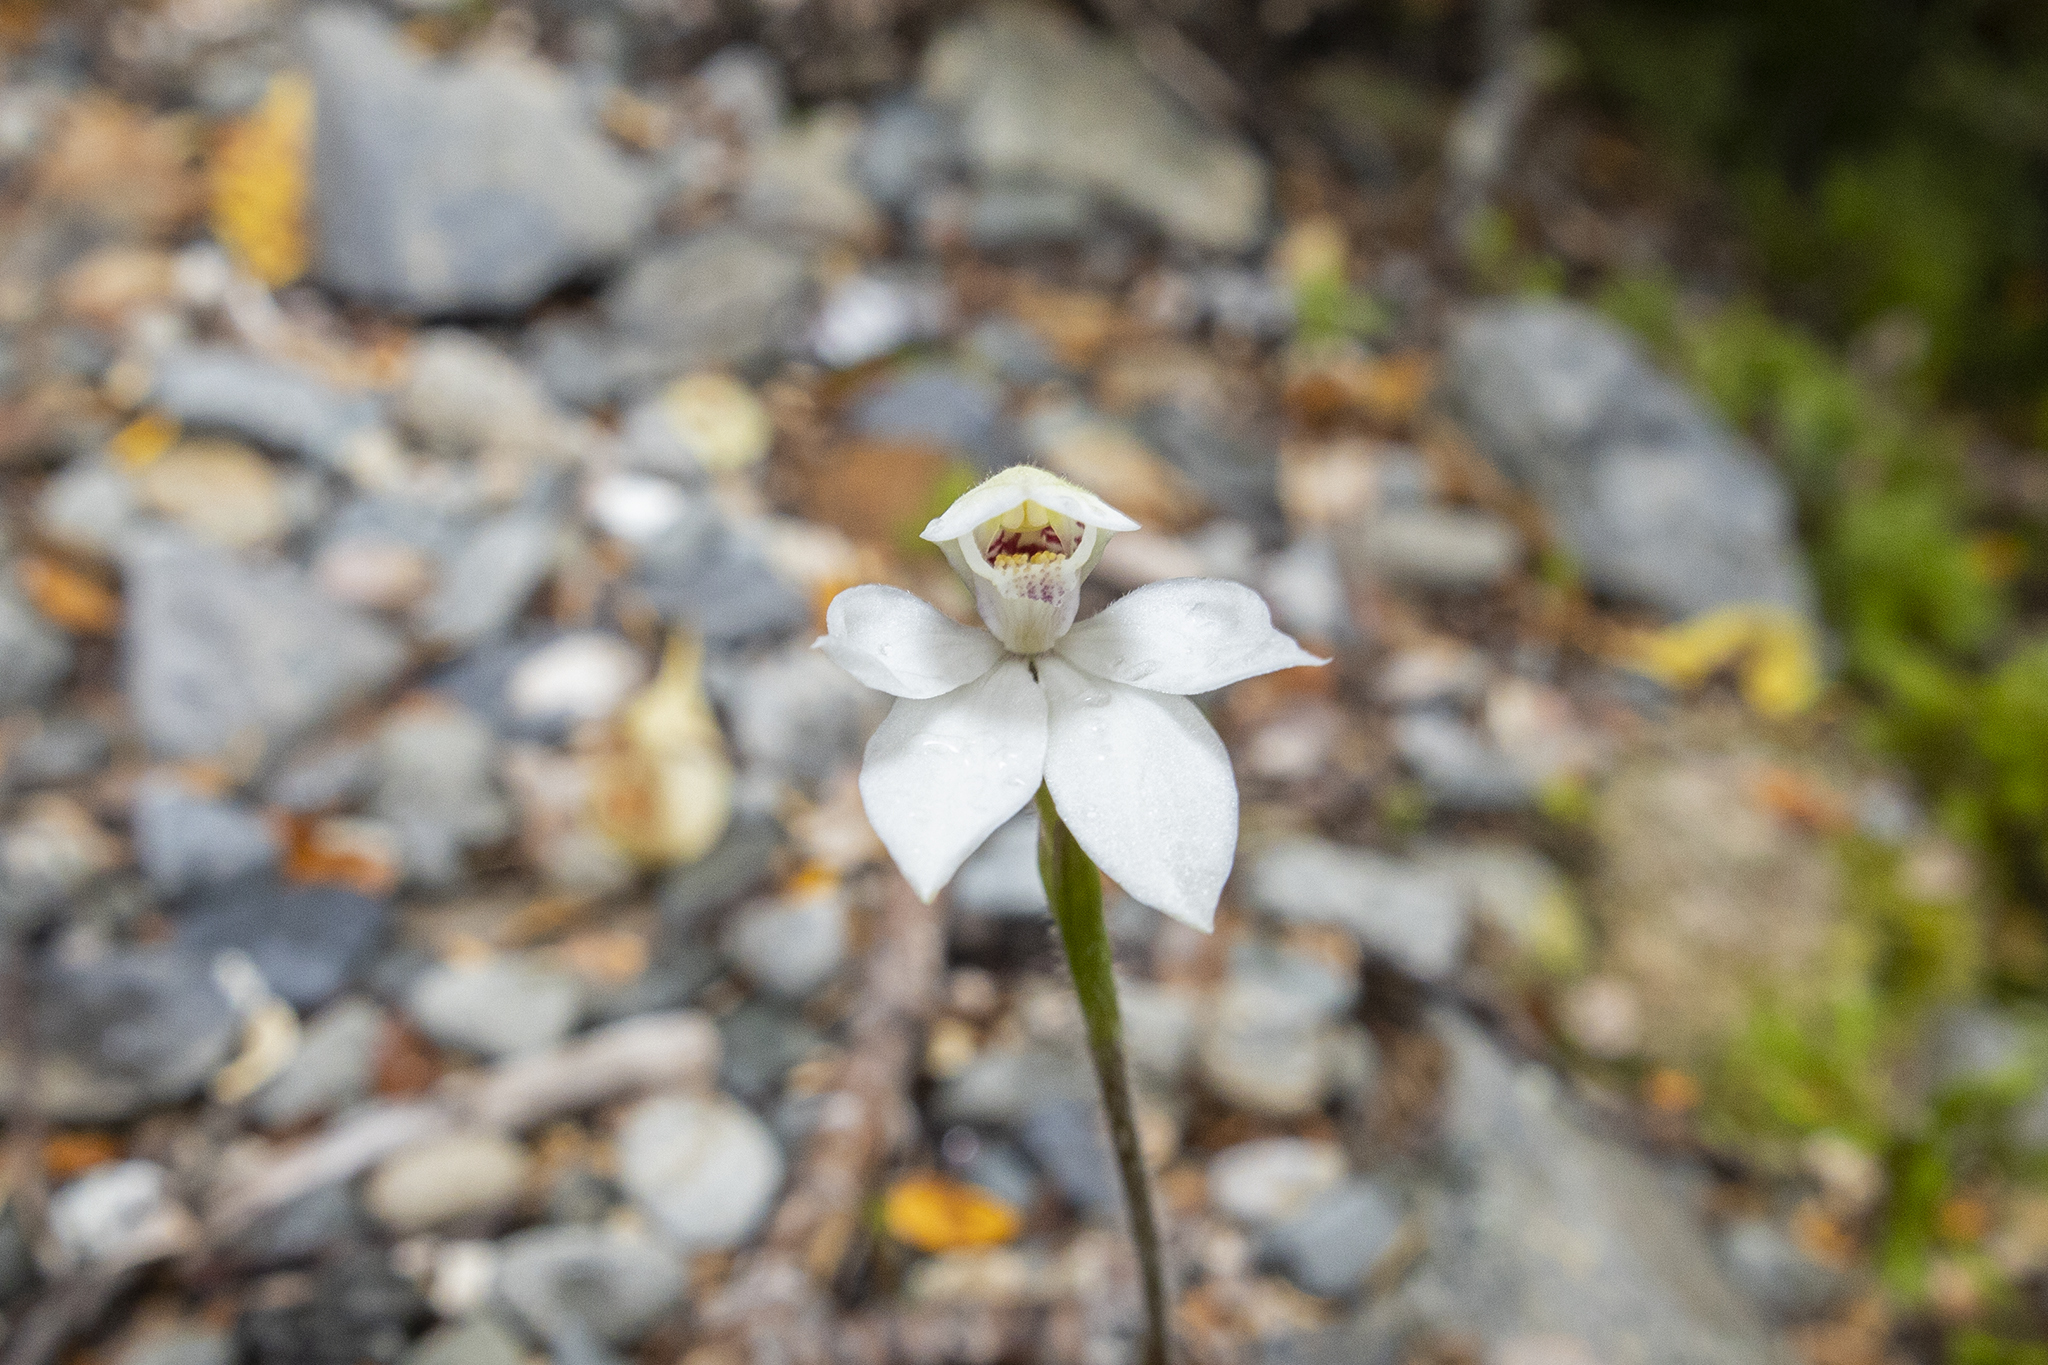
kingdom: Plantae
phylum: Tracheophyta
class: Liliopsida
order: Asparagales
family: Orchidaceae
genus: Caladenia
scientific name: Caladenia lyallii
